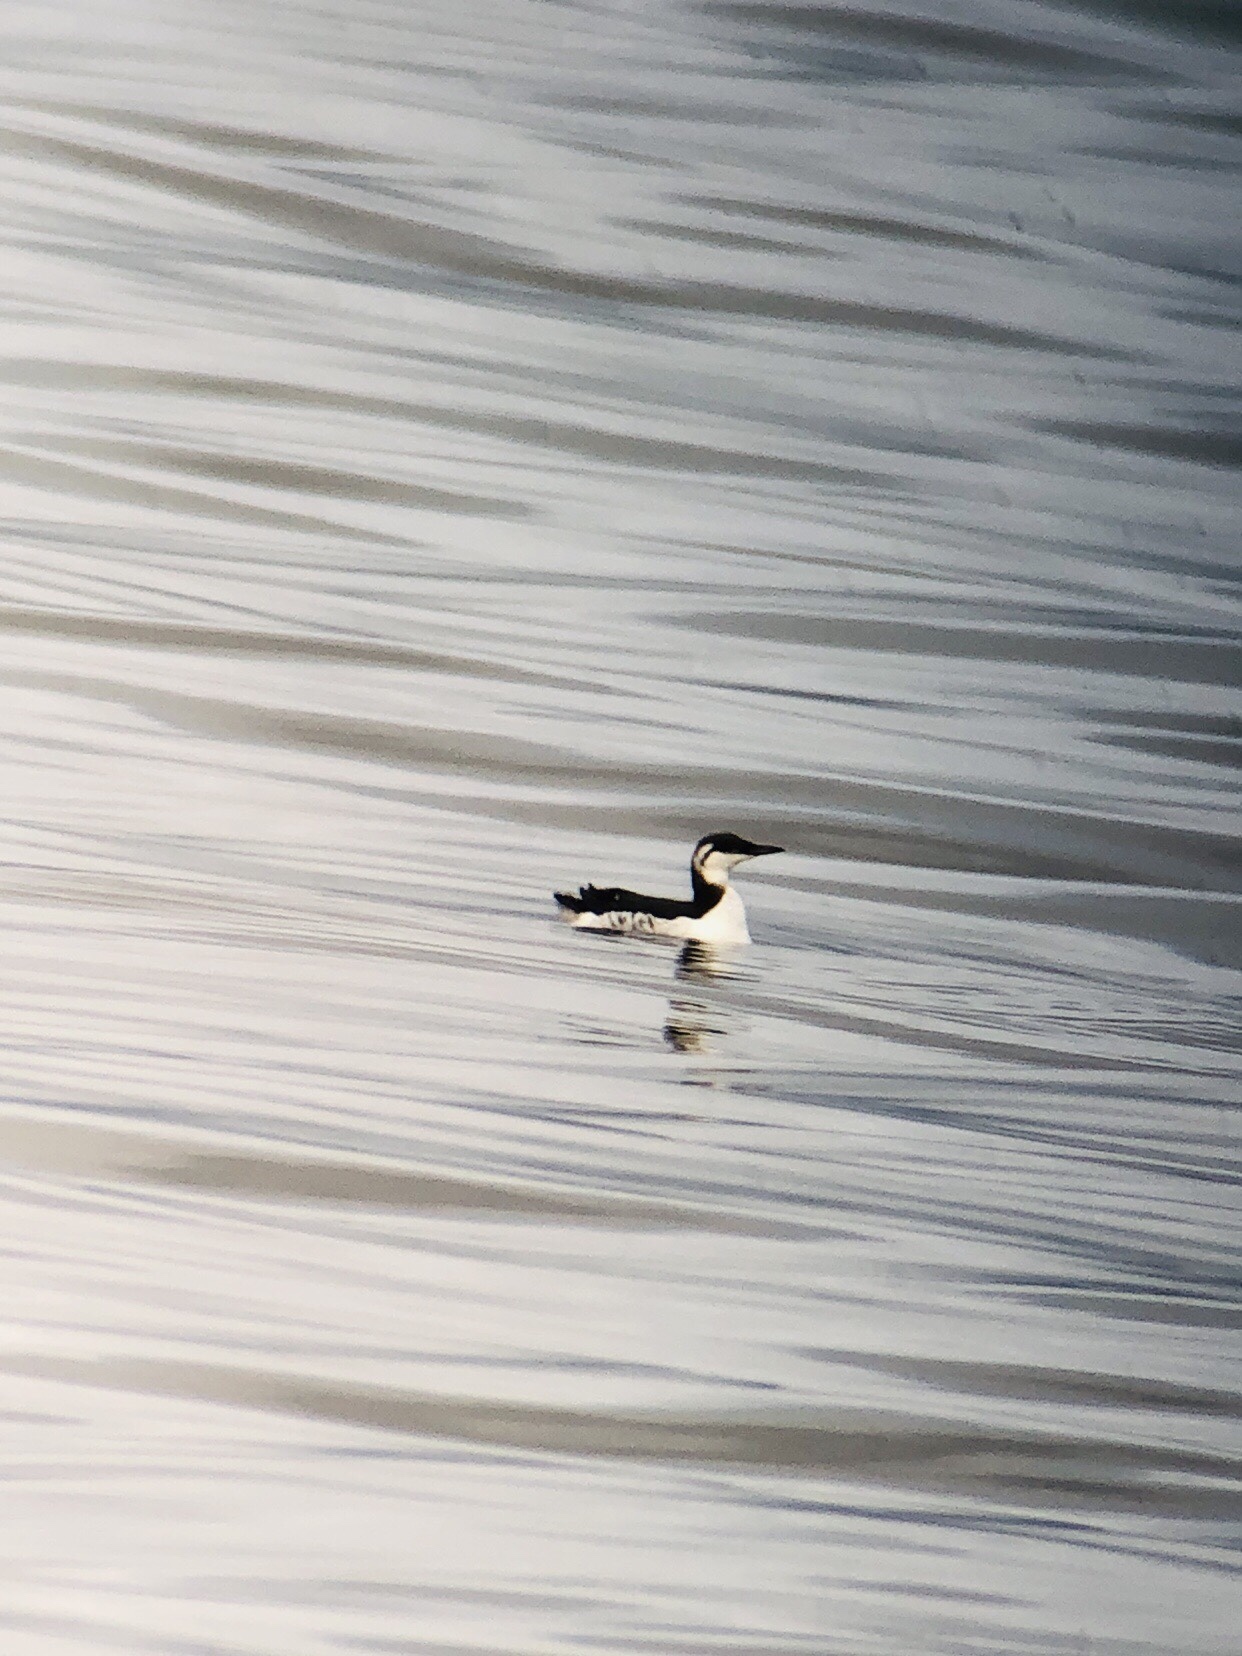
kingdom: Animalia
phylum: Chordata
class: Aves
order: Charadriiformes
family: Alcidae
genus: Uria
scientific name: Uria aalge
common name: Common murre
